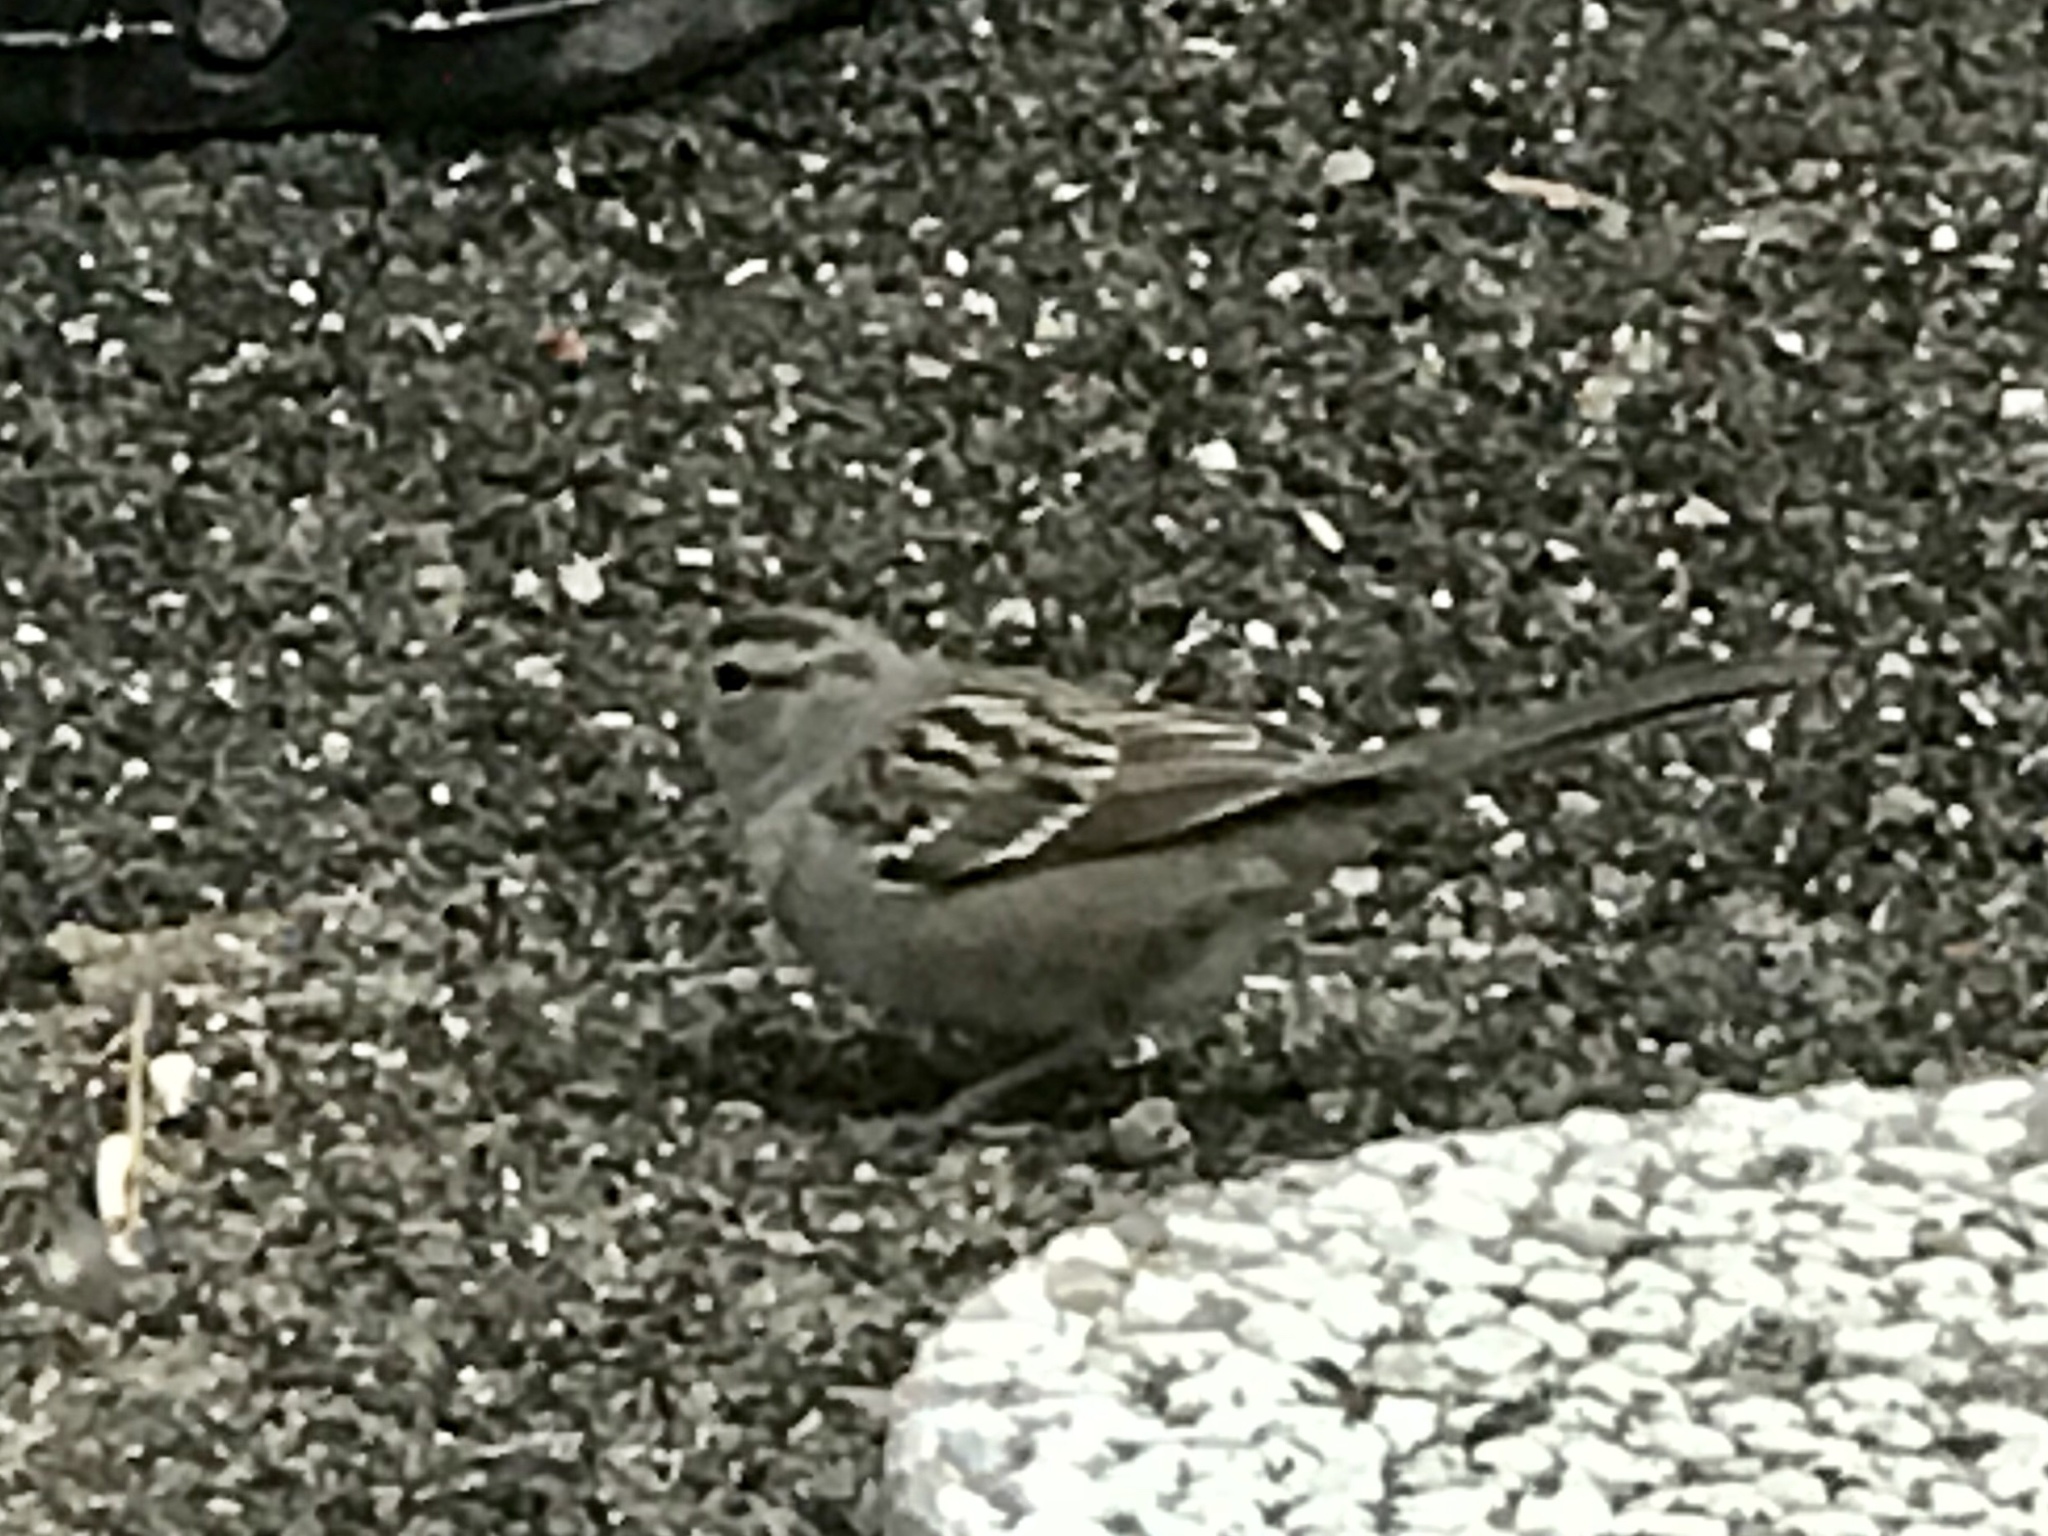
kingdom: Animalia
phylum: Chordata
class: Aves
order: Passeriformes
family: Passerellidae
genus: Zonotrichia
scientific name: Zonotrichia leucophrys
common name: White-crowned sparrow
